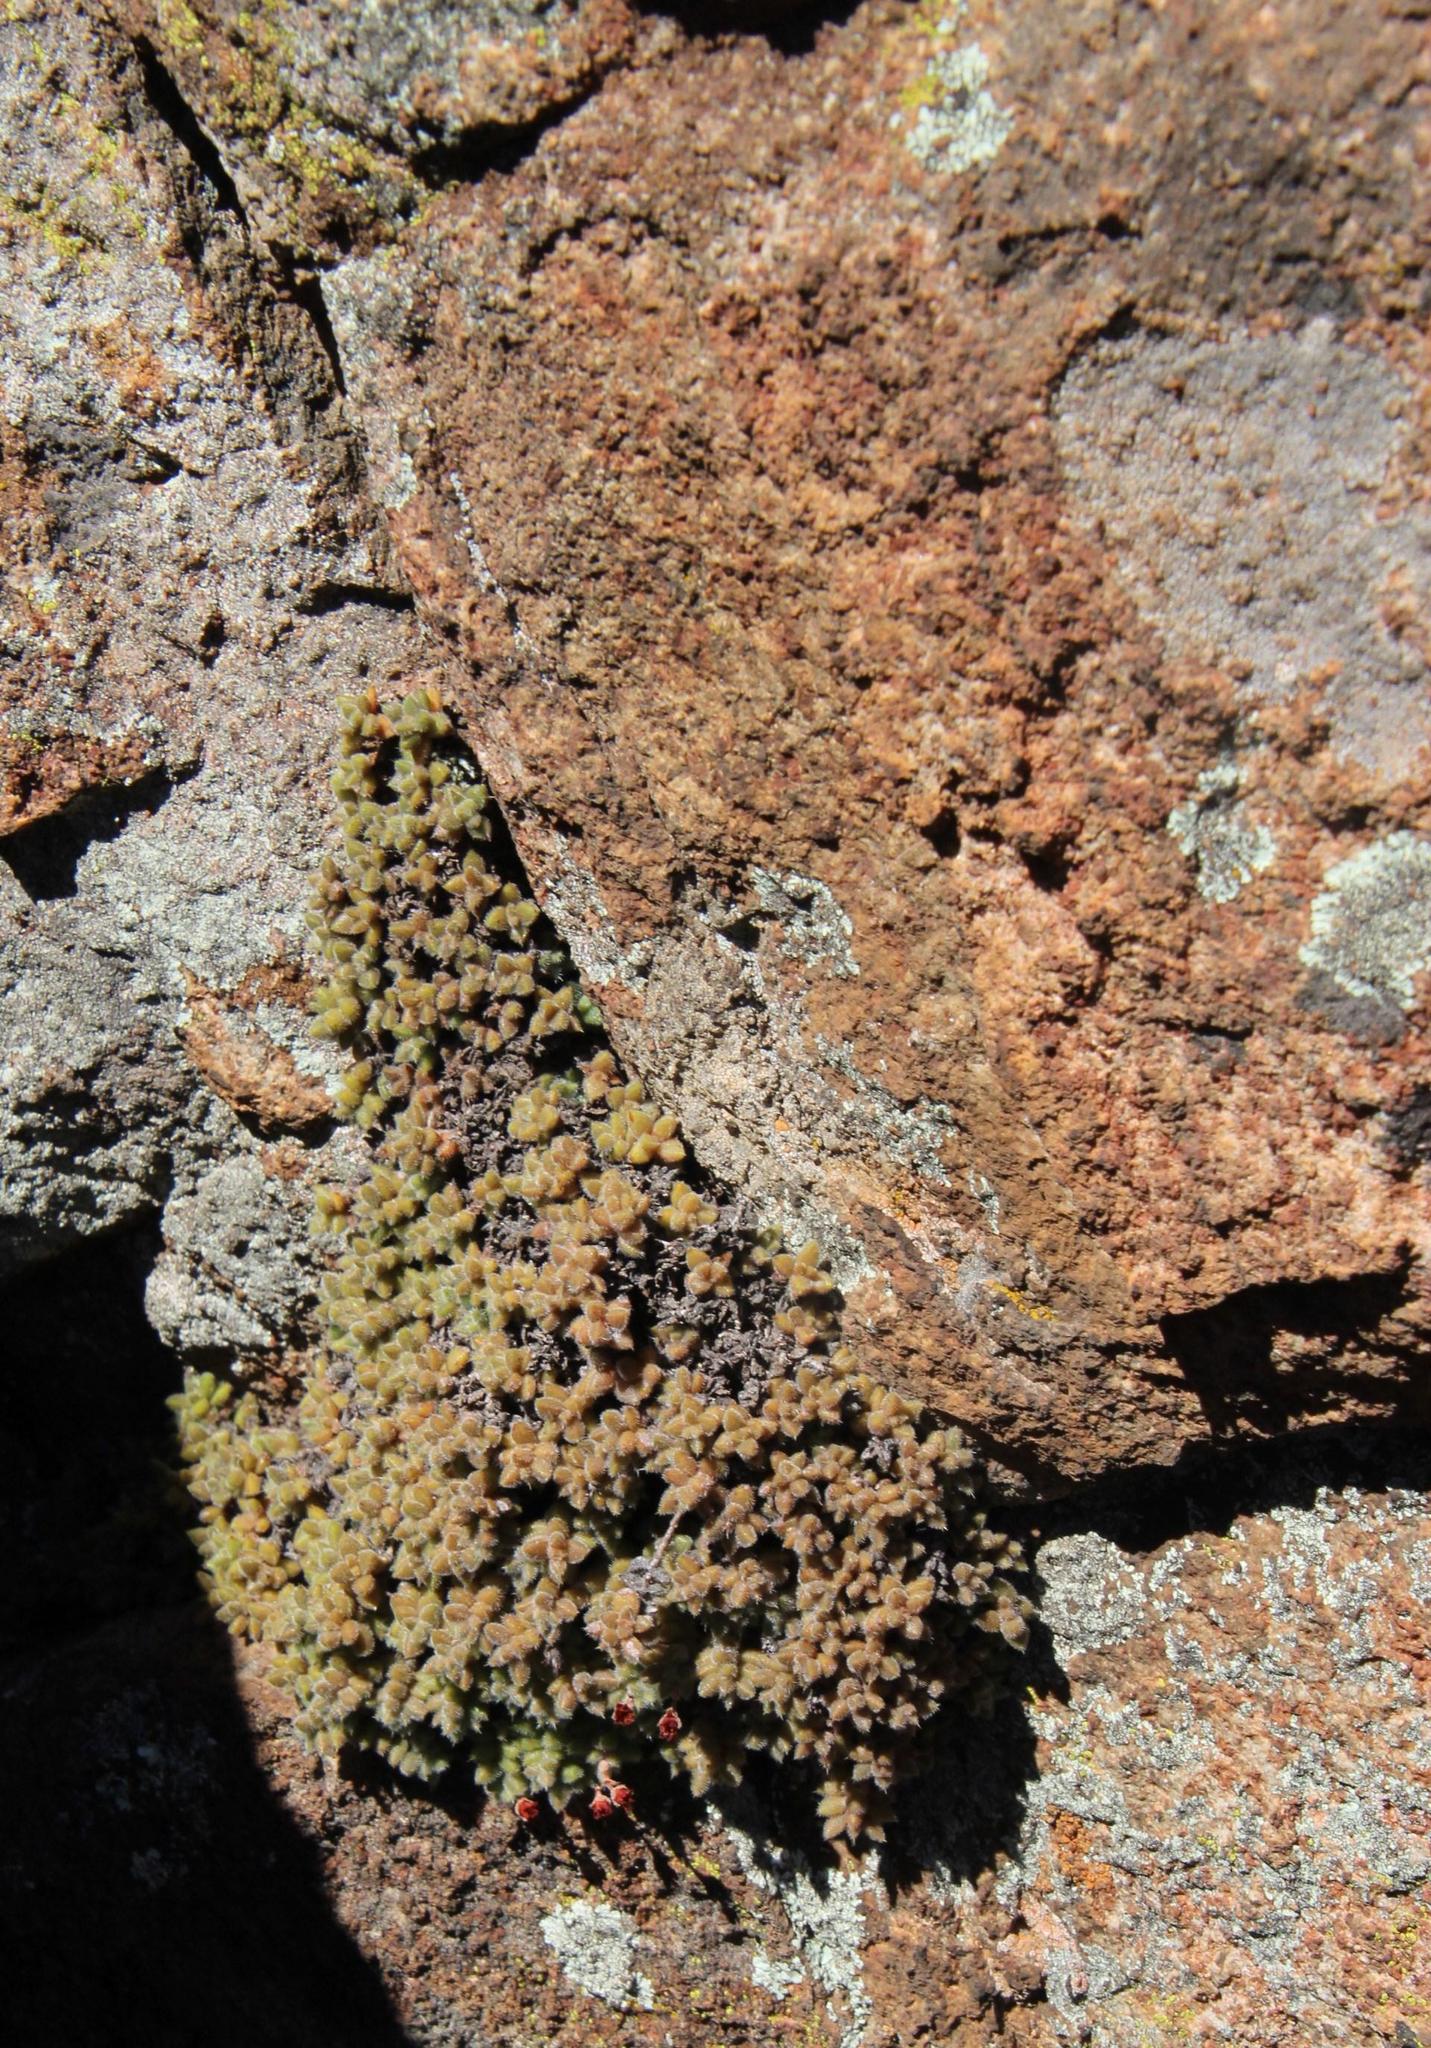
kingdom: Plantae
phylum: Tracheophyta
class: Magnoliopsida
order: Saxifragales
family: Crassulaceae
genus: Crassula
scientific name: Crassula lanuginosa
